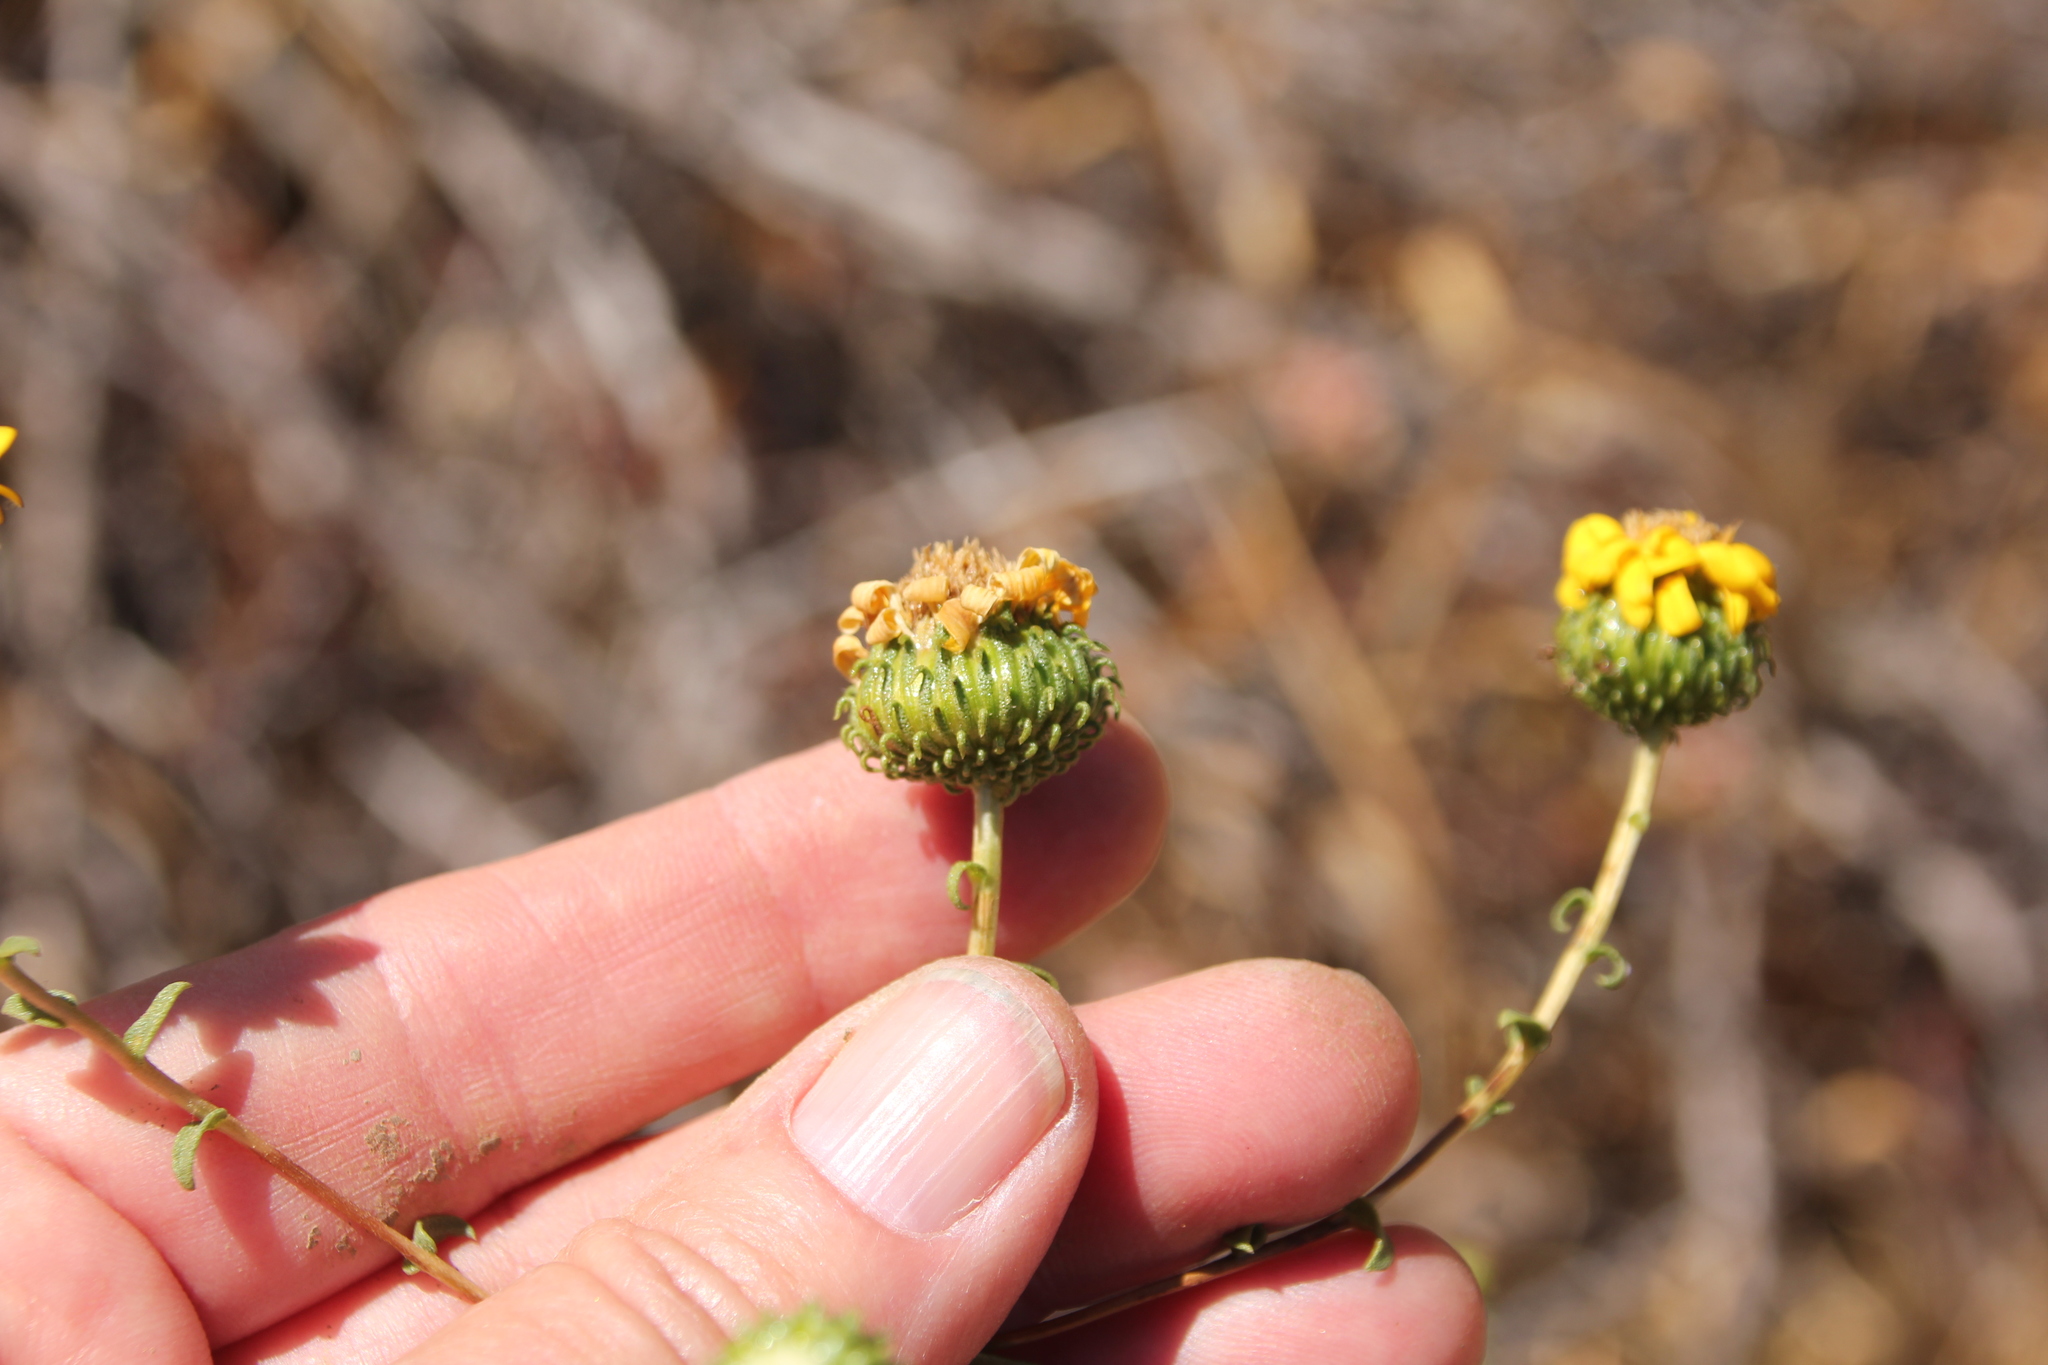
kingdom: Plantae
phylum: Tracheophyta
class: Magnoliopsida
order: Asterales
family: Asteraceae
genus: Grindelia
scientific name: Grindelia hirsutula
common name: Hairy gumweed
